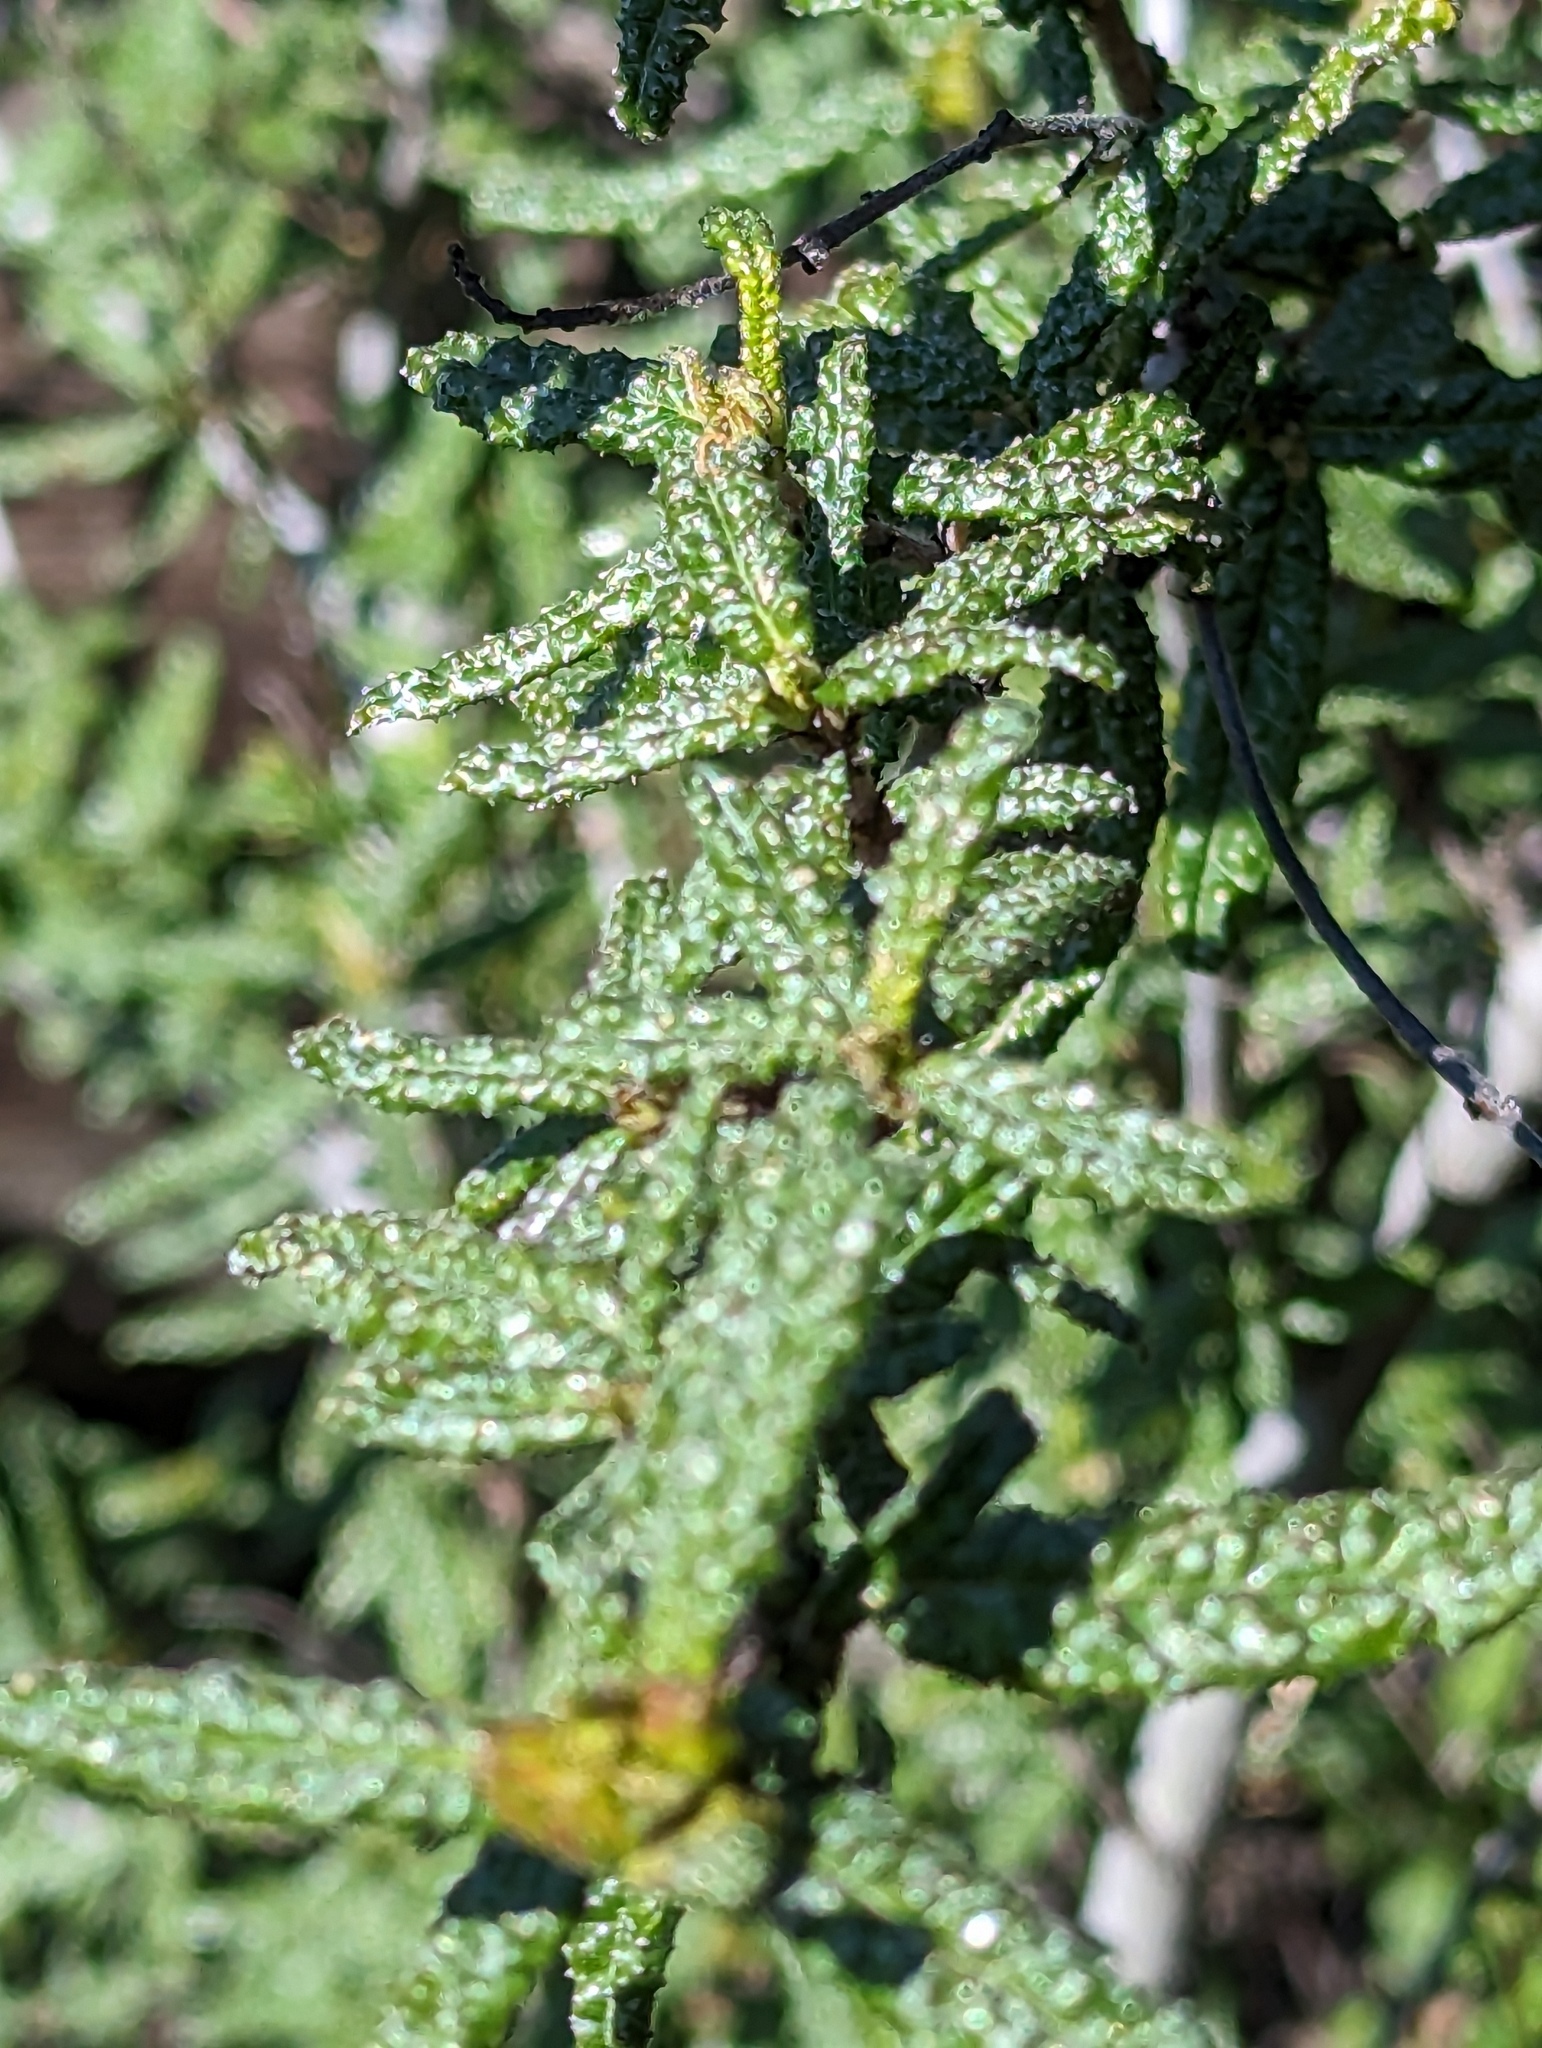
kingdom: Plantae
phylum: Tracheophyta
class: Magnoliopsida
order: Rosales
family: Rhamnaceae
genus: Ceanothus
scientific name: Ceanothus papillosus
